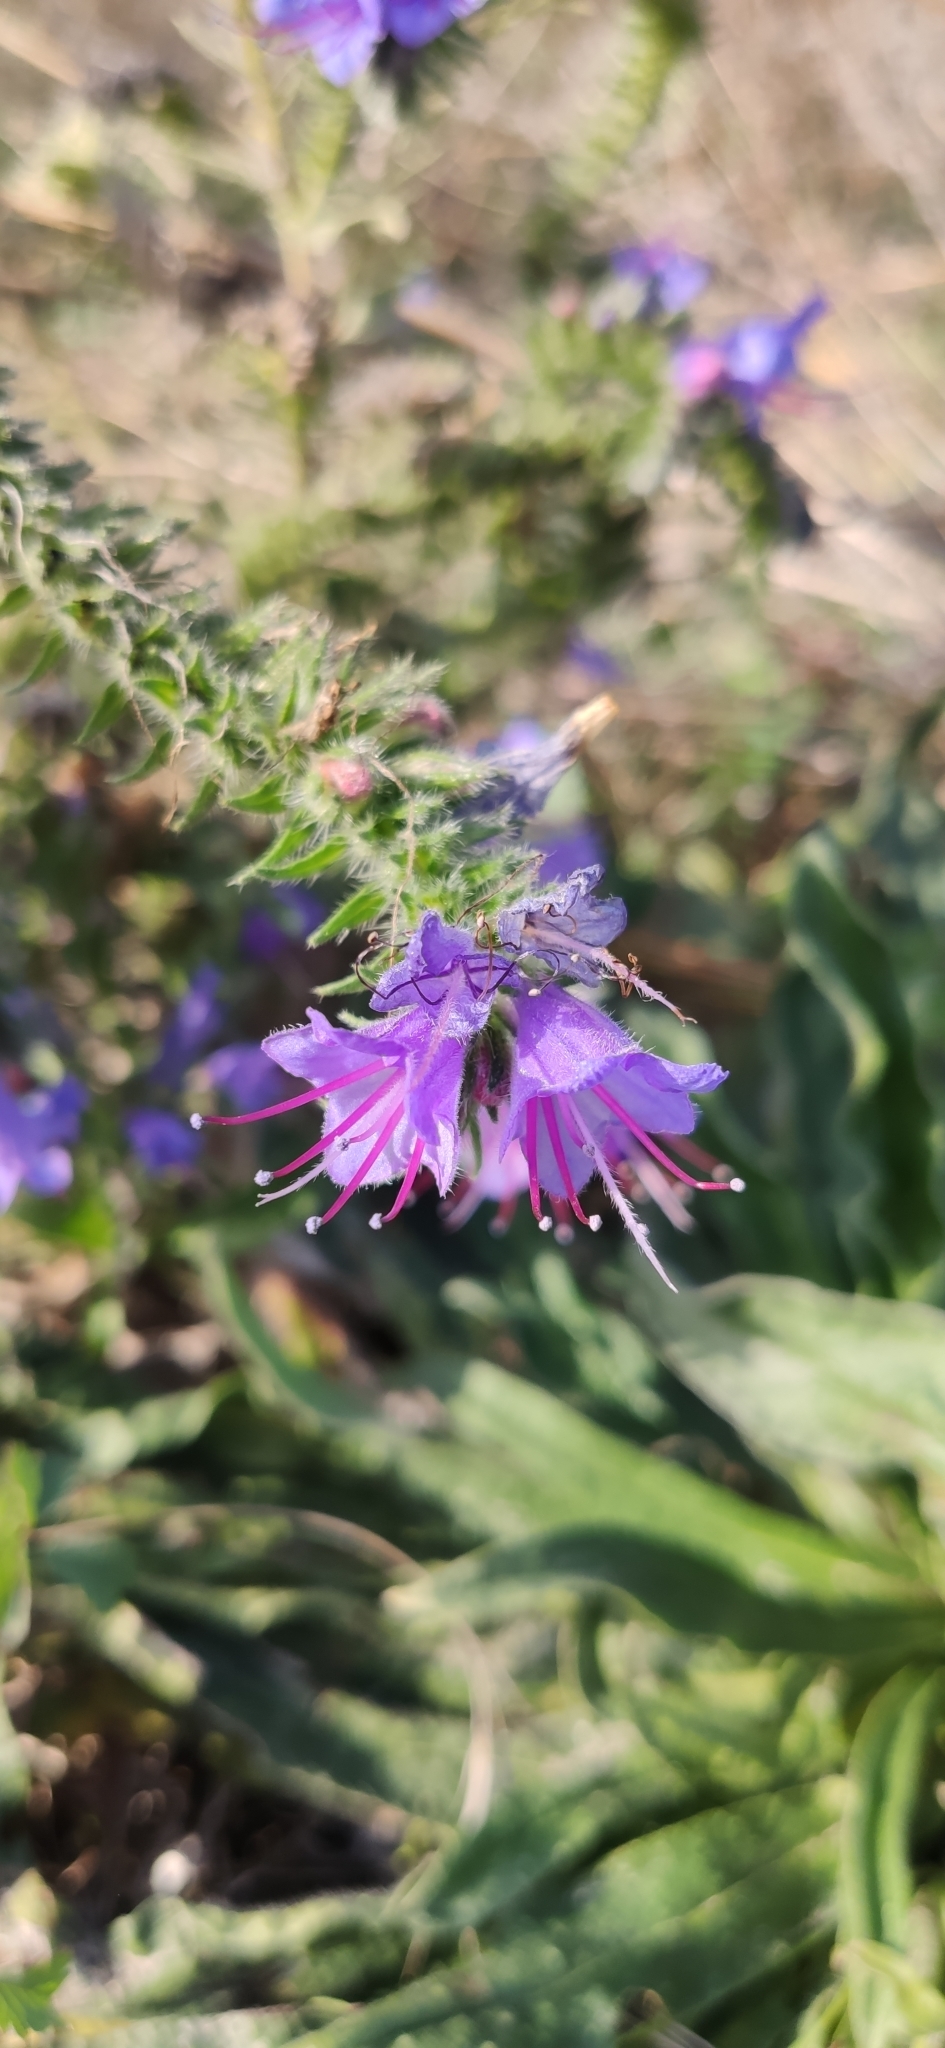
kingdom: Plantae
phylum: Tracheophyta
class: Magnoliopsida
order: Boraginales
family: Boraginaceae
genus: Echium
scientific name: Echium vulgare
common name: Common viper's bugloss
